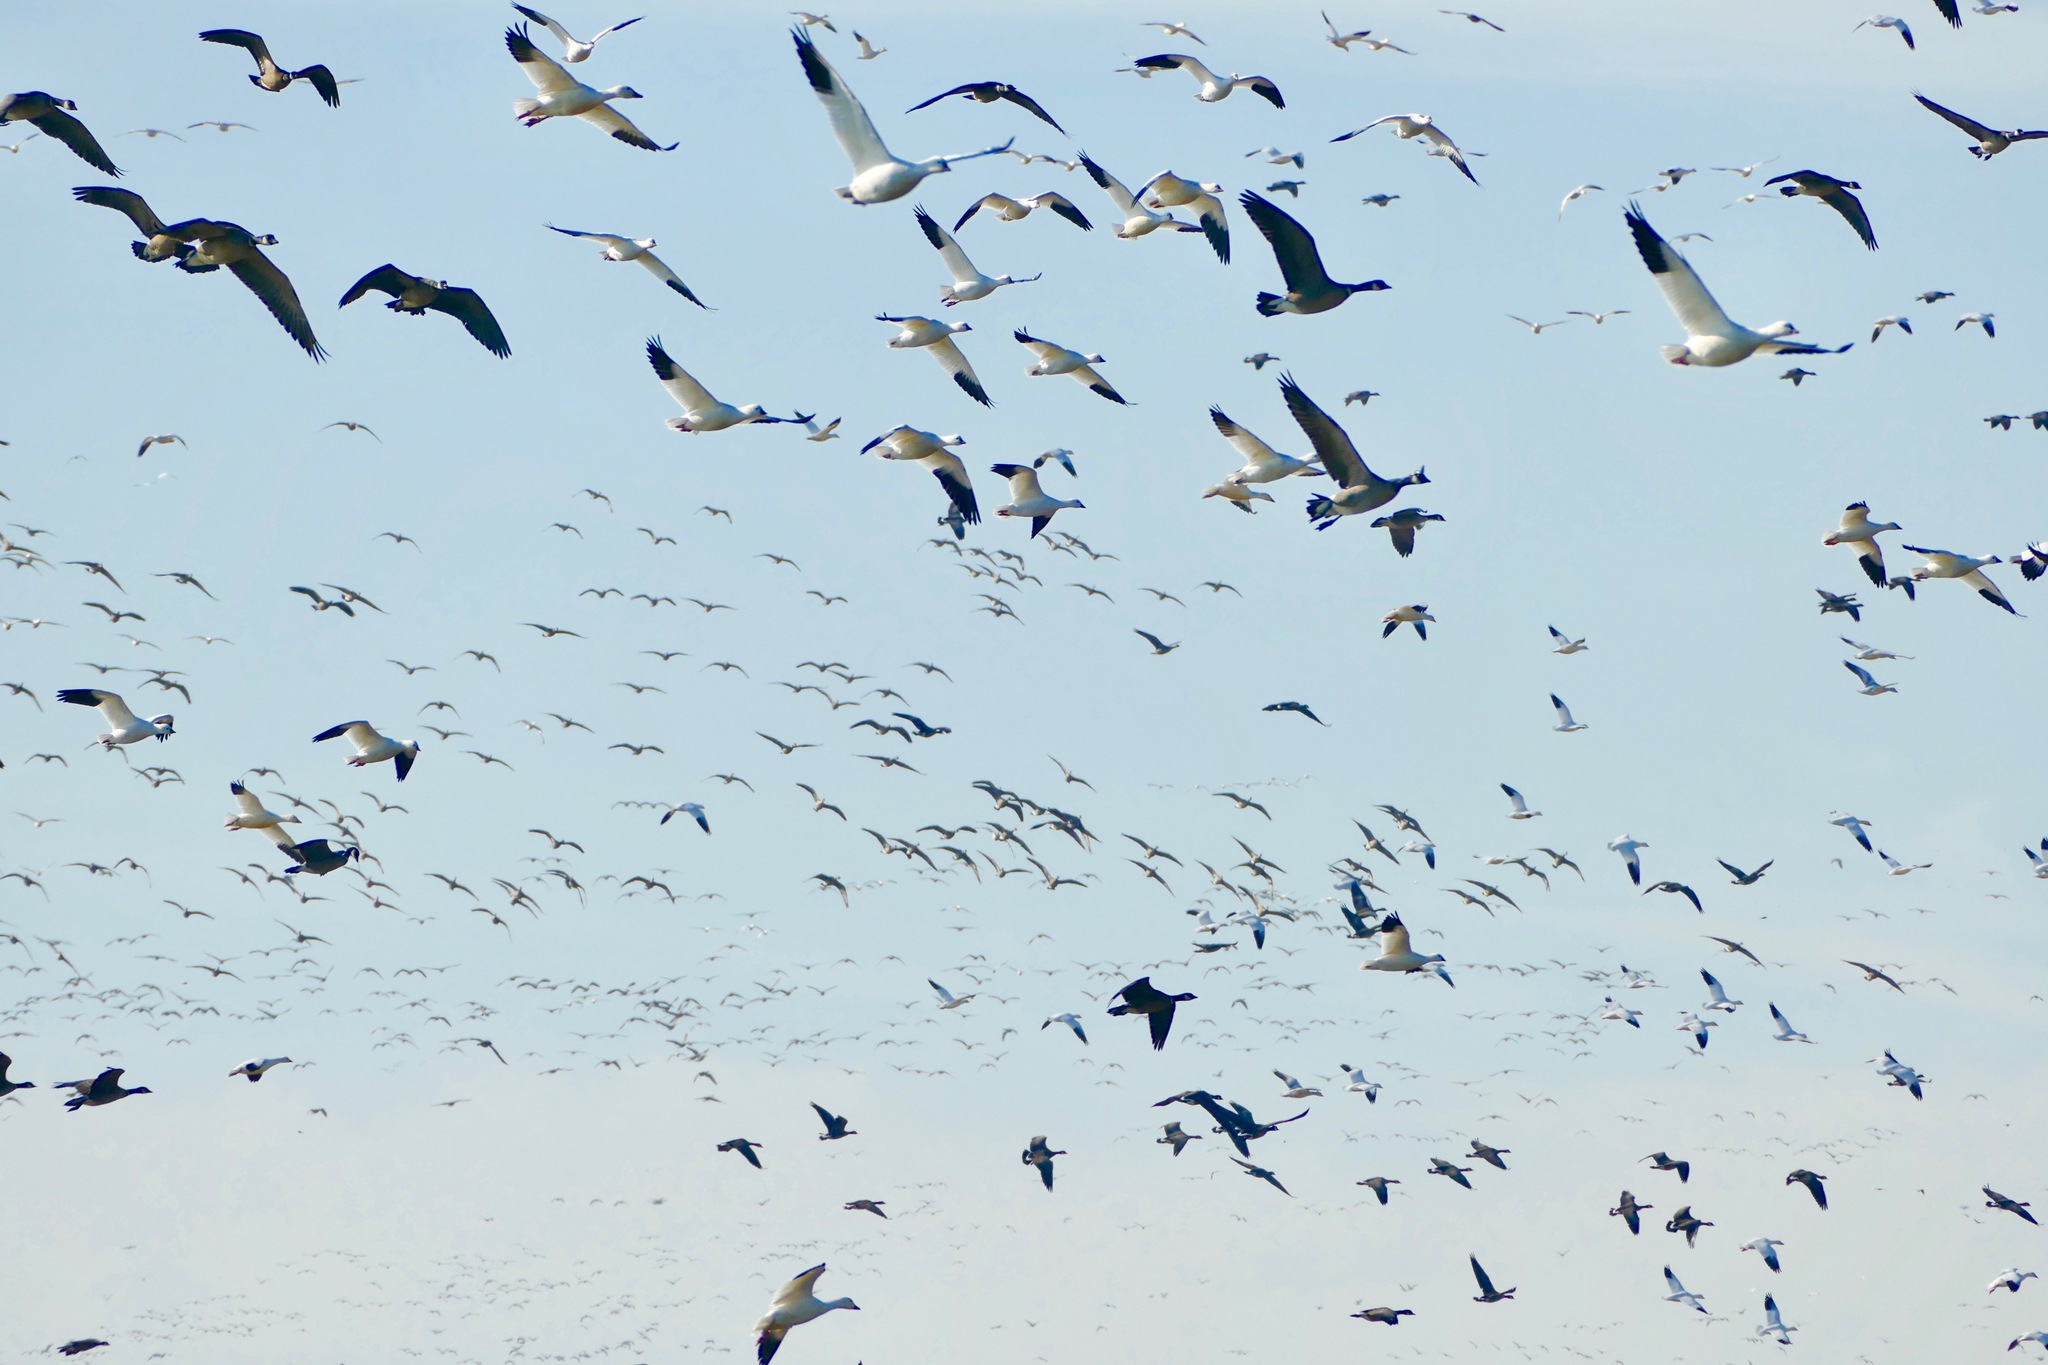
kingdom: Animalia
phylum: Chordata
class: Aves
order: Anseriformes
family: Anatidae
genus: Anser
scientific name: Anser caerulescens
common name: Snow goose
